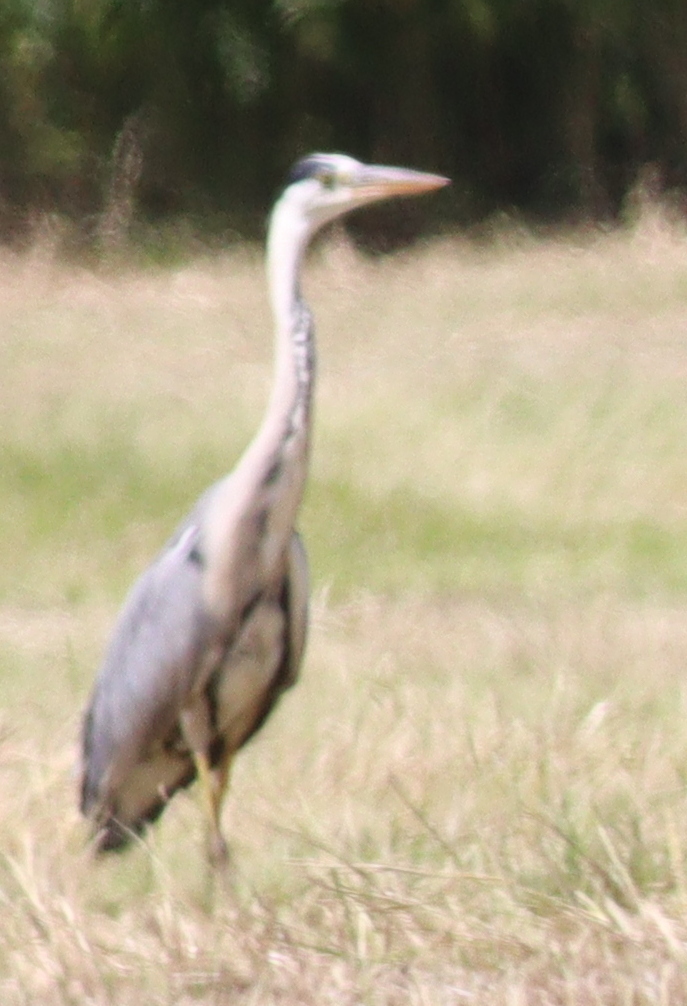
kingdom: Animalia
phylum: Chordata
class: Aves
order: Pelecaniformes
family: Ardeidae
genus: Ardea
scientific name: Ardea cinerea
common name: Grey heron
